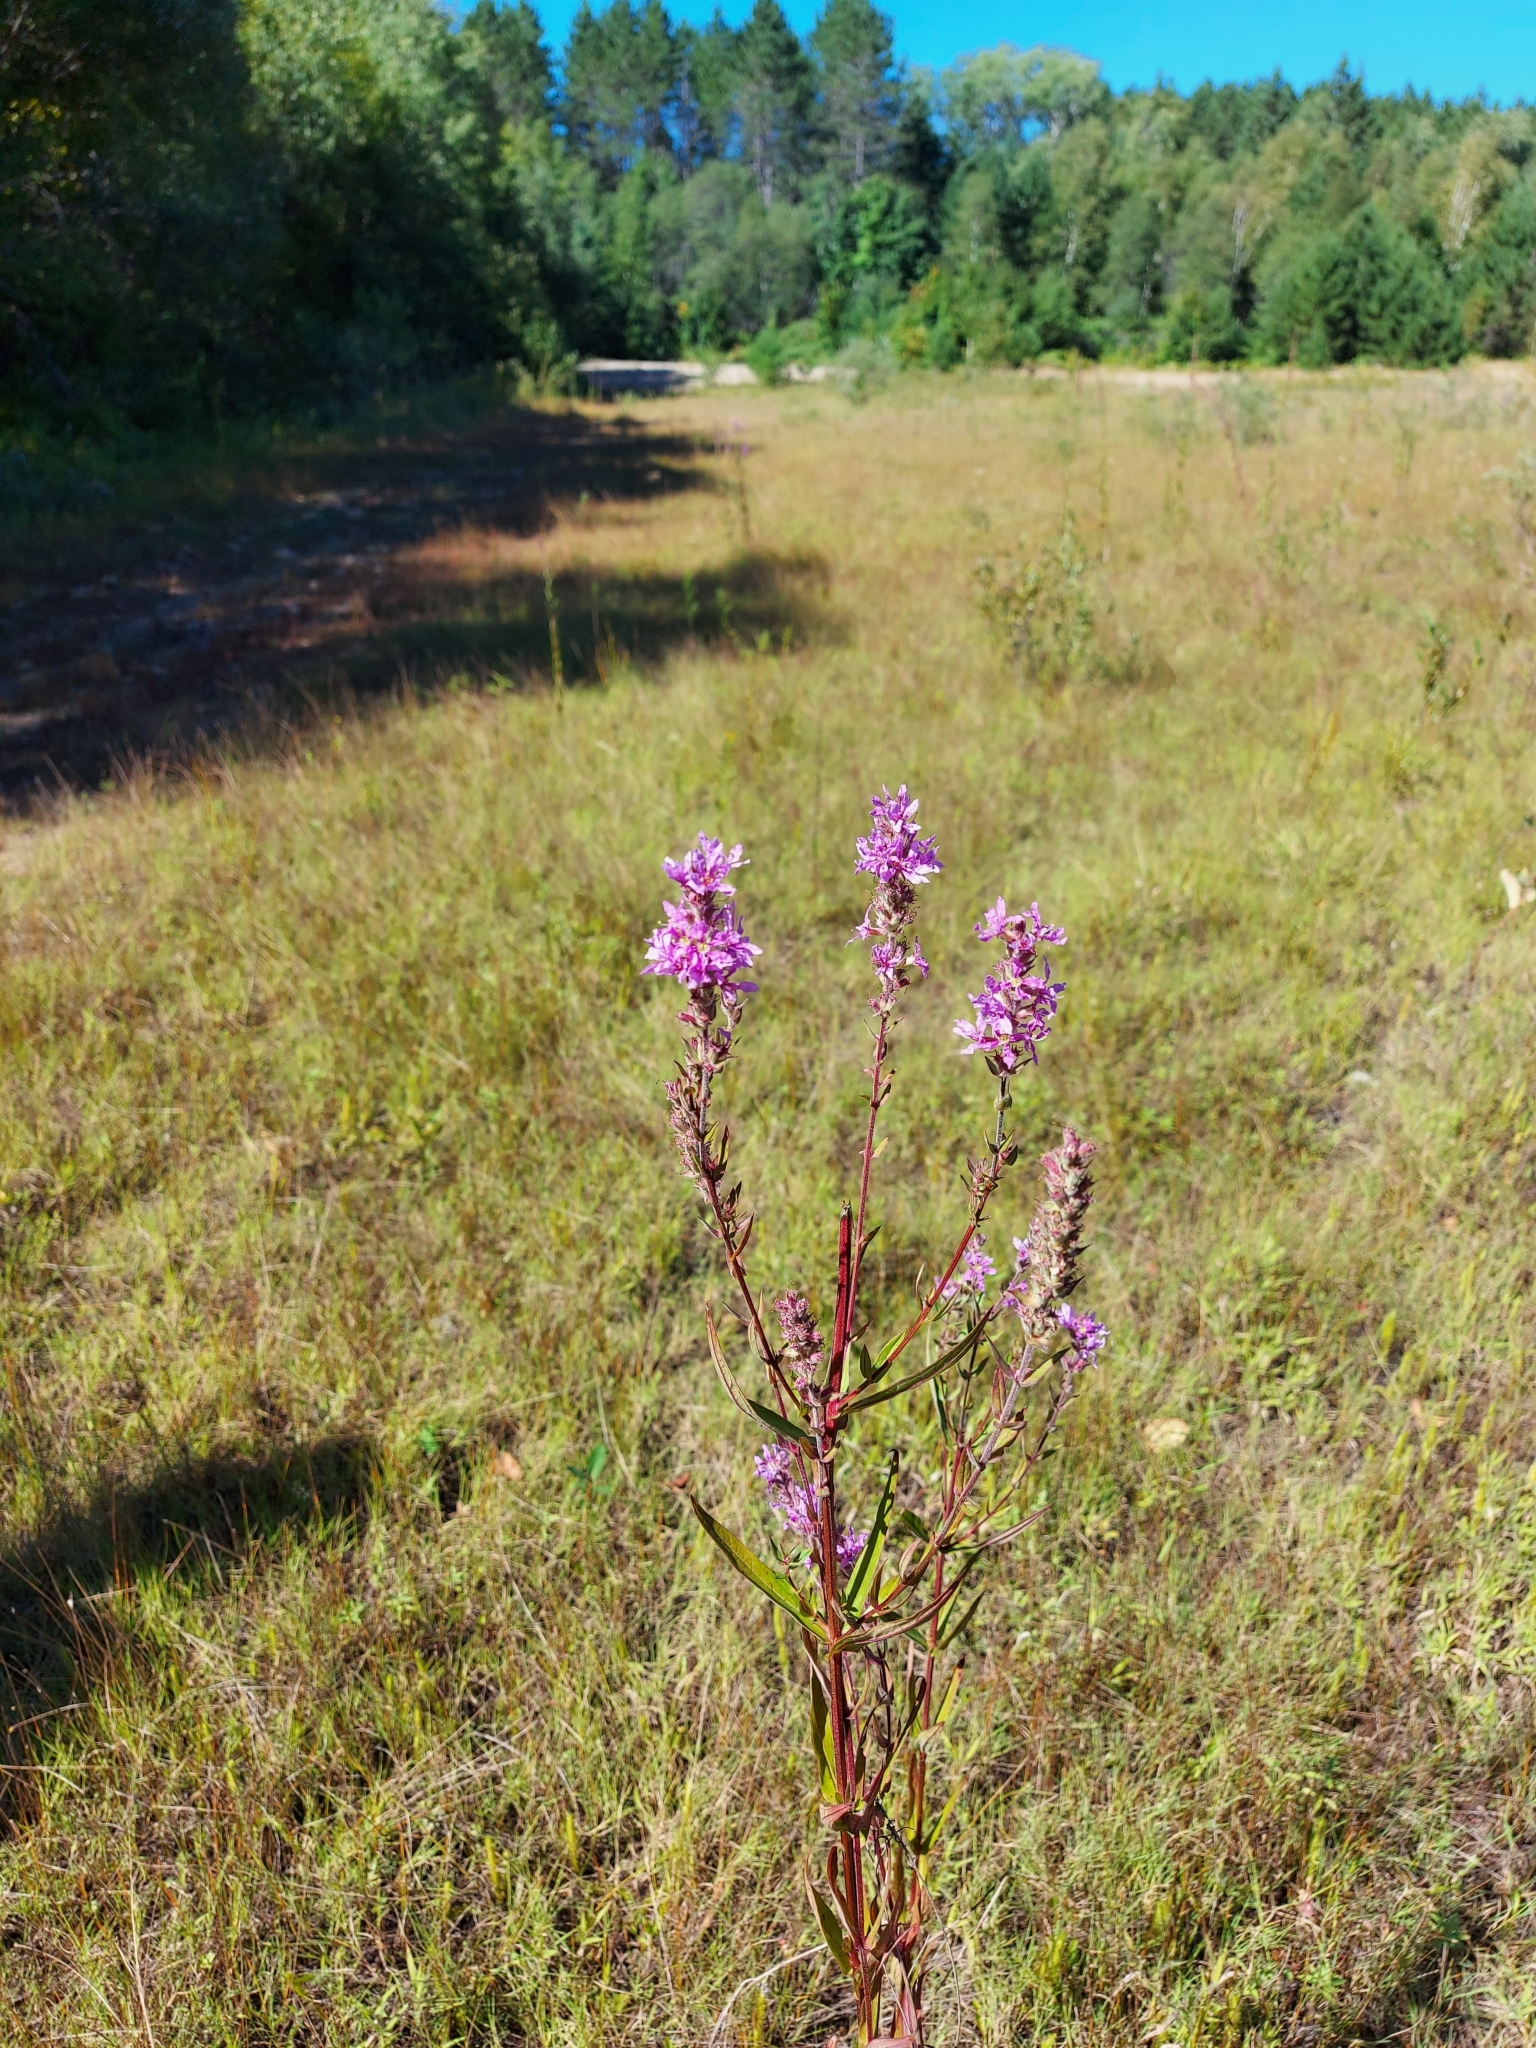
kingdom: Plantae
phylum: Tracheophyta
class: Magnoliopsida
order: Myrtales
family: Lythraceae
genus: Lythrum
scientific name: Lythrum salicaria
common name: Purple loosestrife
